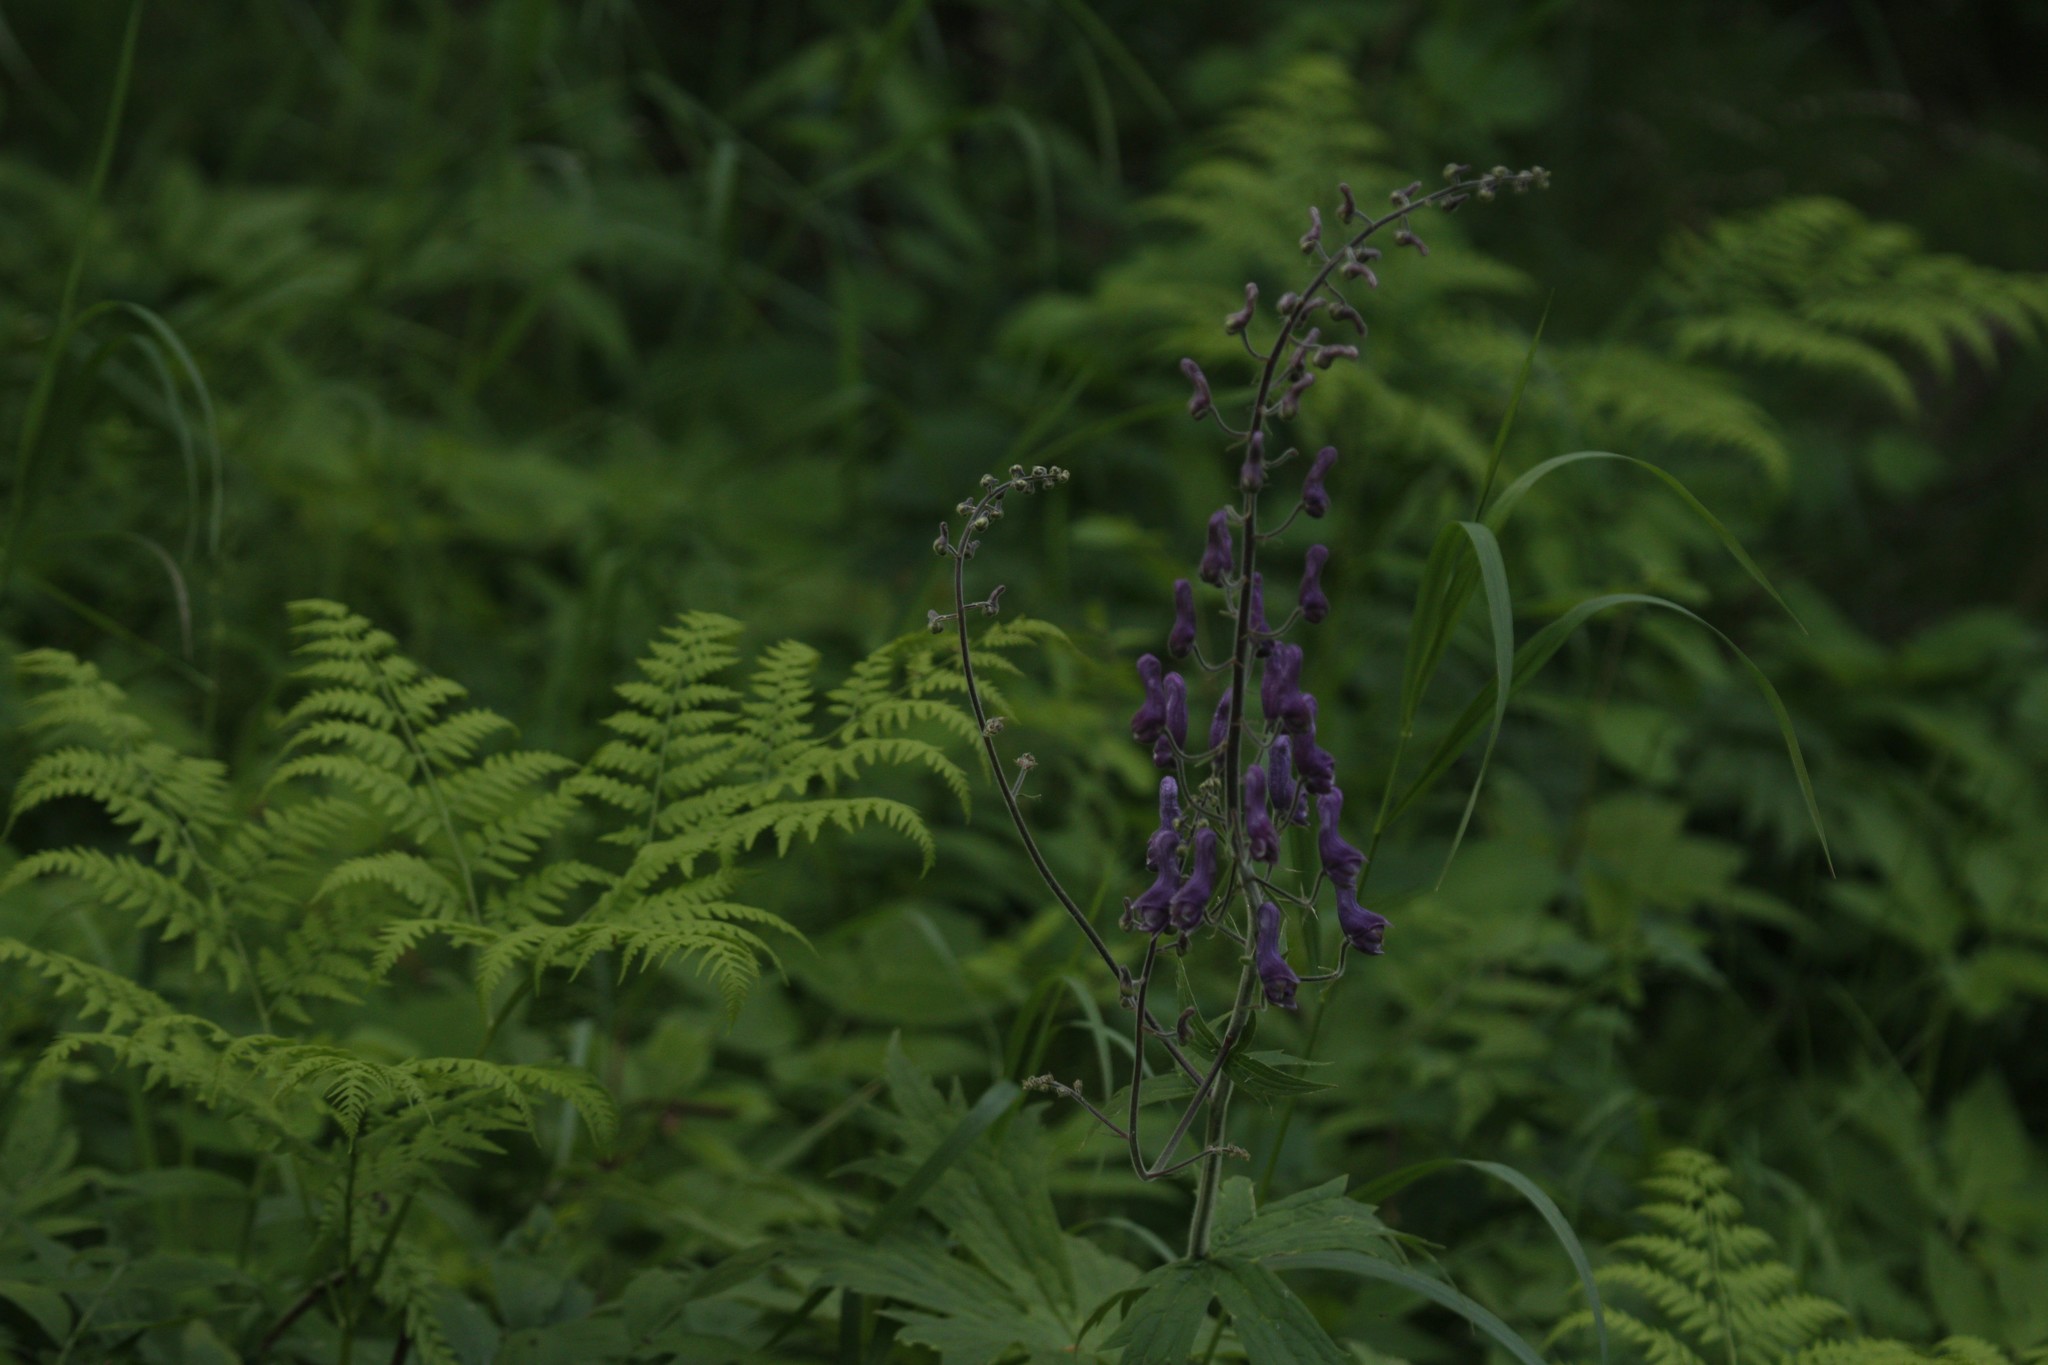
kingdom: Plantae
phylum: Tracheophyta
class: Magnoliopsida
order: Ranunculales
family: Ranunculaceae
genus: Aconitum
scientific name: Aconitum septentrionale
